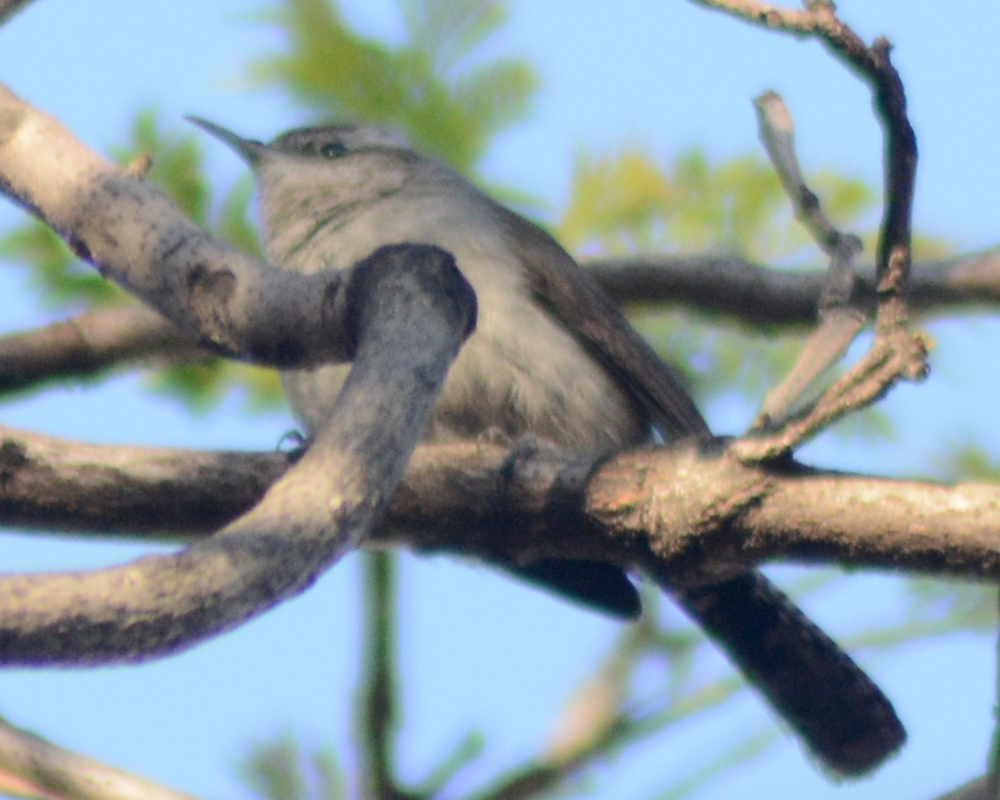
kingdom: Animalia
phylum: Chordata
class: Aves
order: Passeriformes
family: Troglodytidae
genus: Thryomanes
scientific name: Thryomanes bewickii
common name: Bewick's wren
